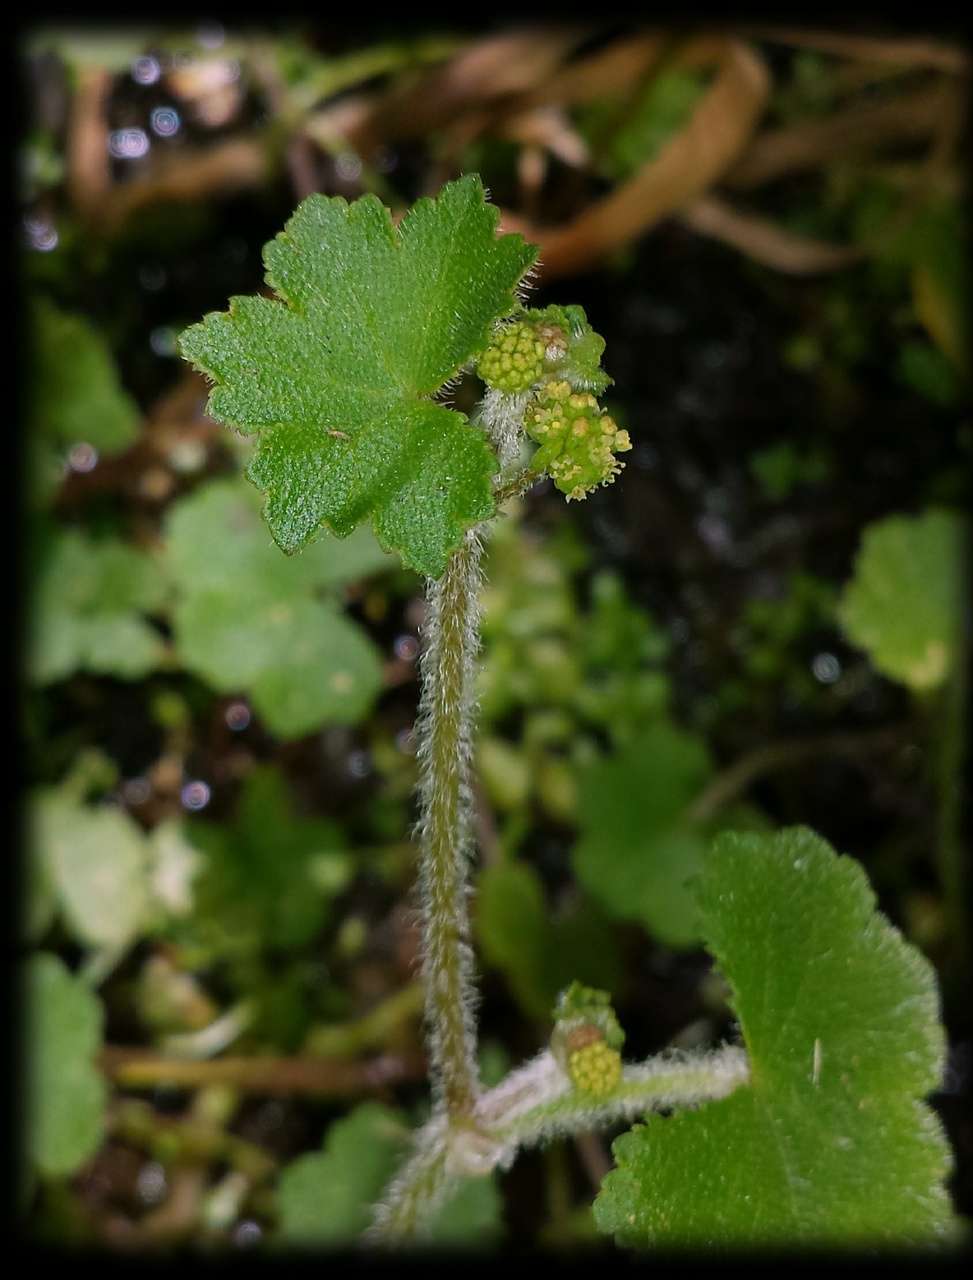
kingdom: Plantae
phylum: Tracheophyta
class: Magnoliopsida
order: Apiales
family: Araliaceae
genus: Hydrocotyle
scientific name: Hydrocotyle hirta
